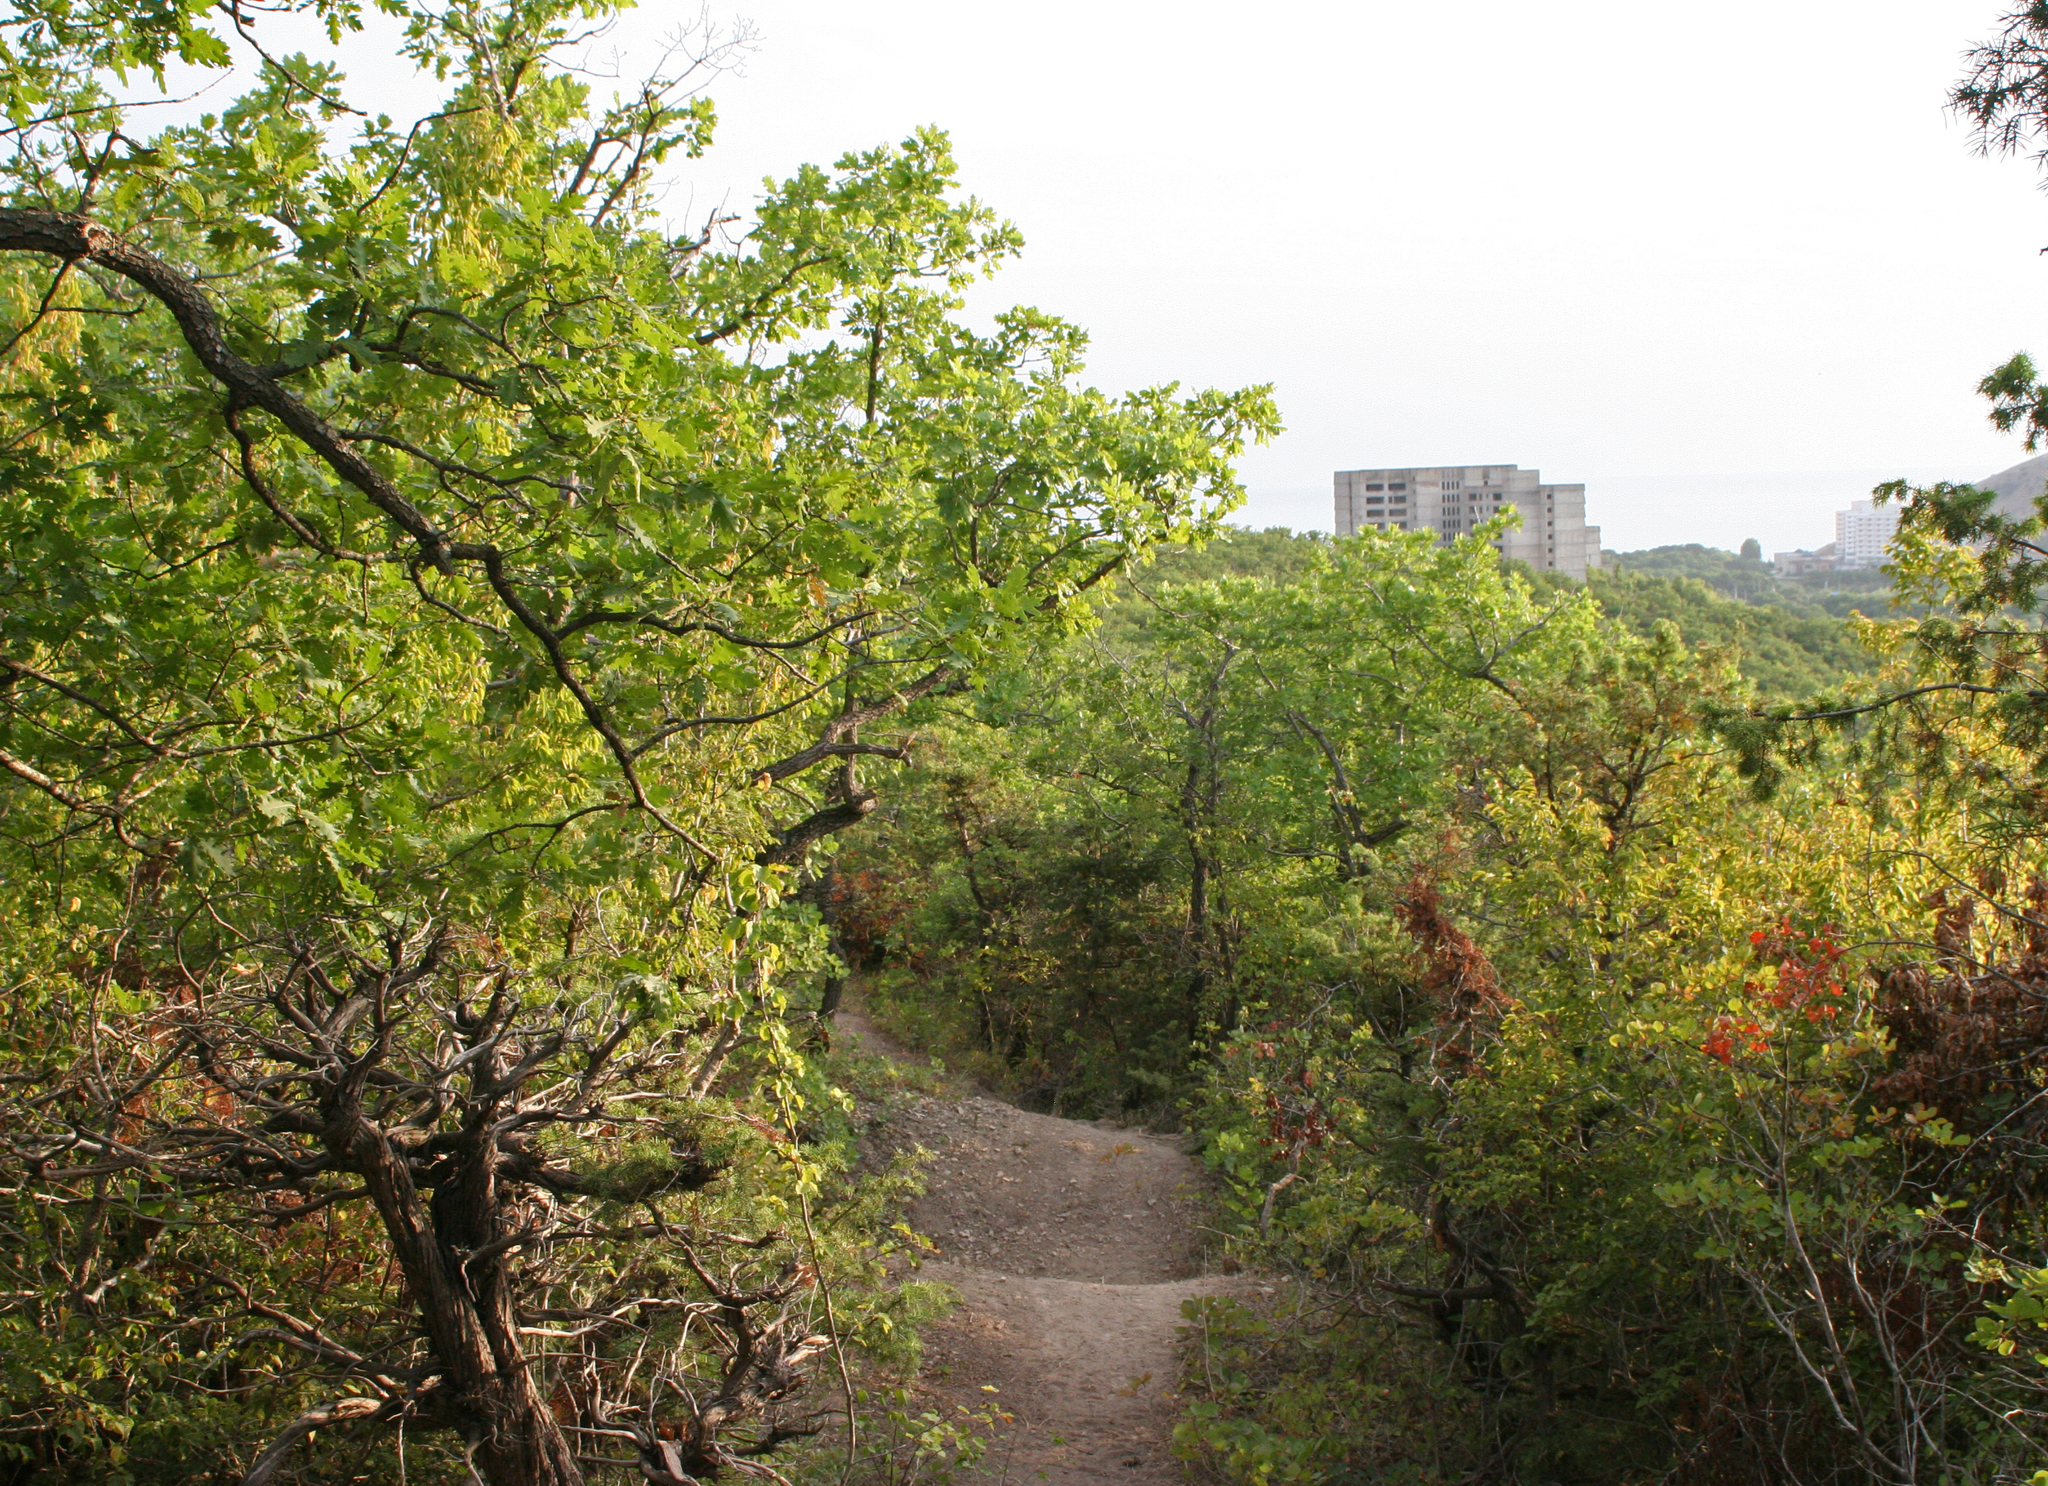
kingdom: Plantae
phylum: Tracheophyta
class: Magnoliopsida
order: Fagales
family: Fagaceae
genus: Quercus
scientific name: Quercus pubescens
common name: Downy oak
